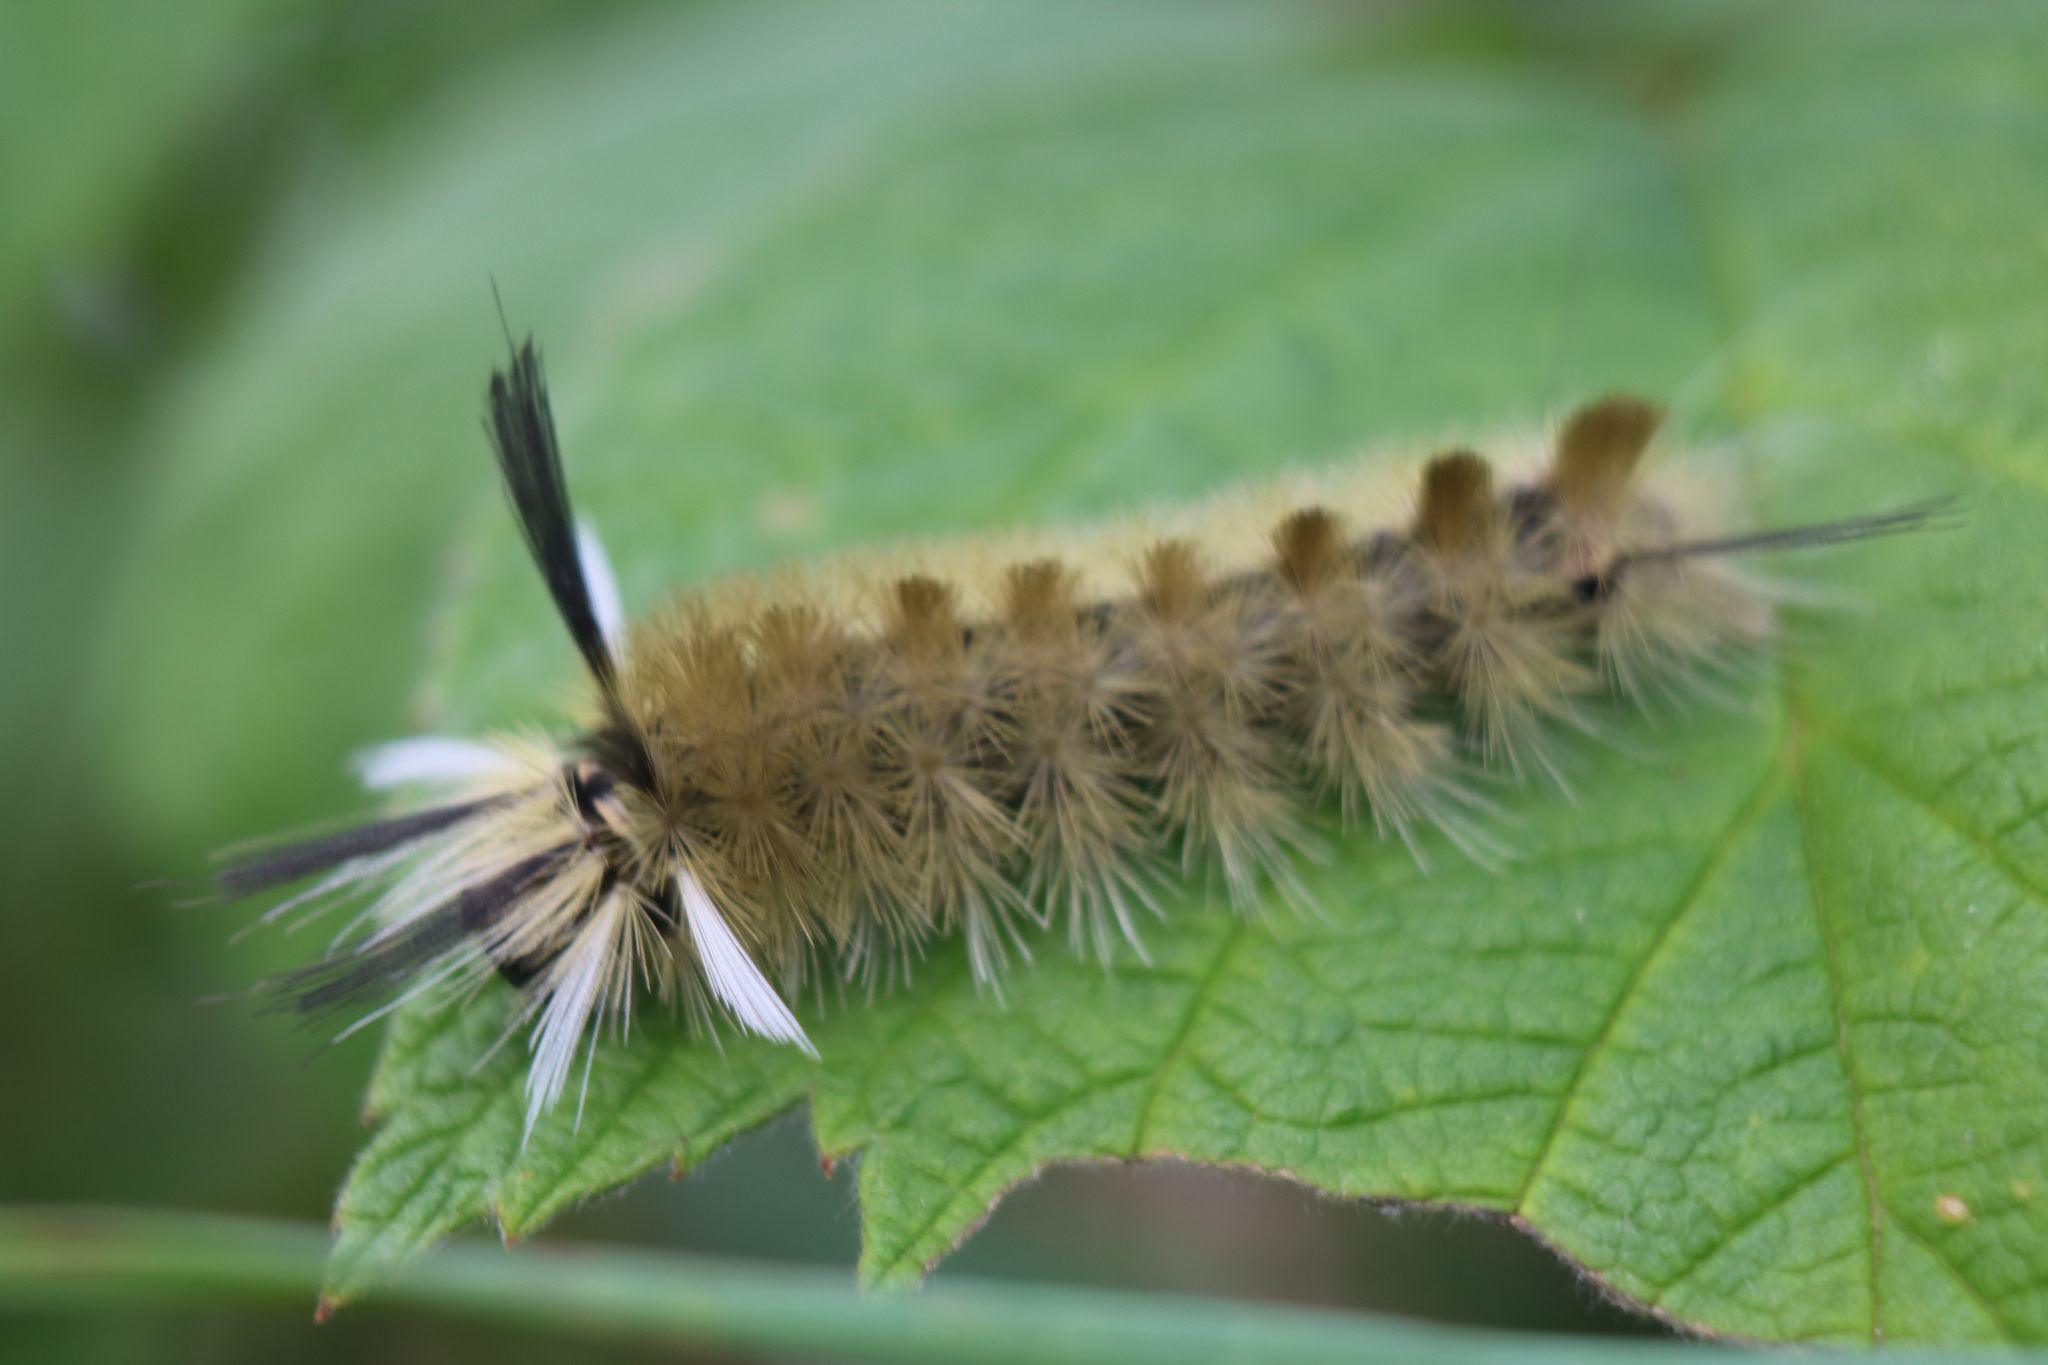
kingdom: Animalia
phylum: Arthropoda
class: Insecta
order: Lepidoptera
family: Erebidae
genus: Halysidota
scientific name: Halysidota tessellaris
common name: Banded tussock moth
